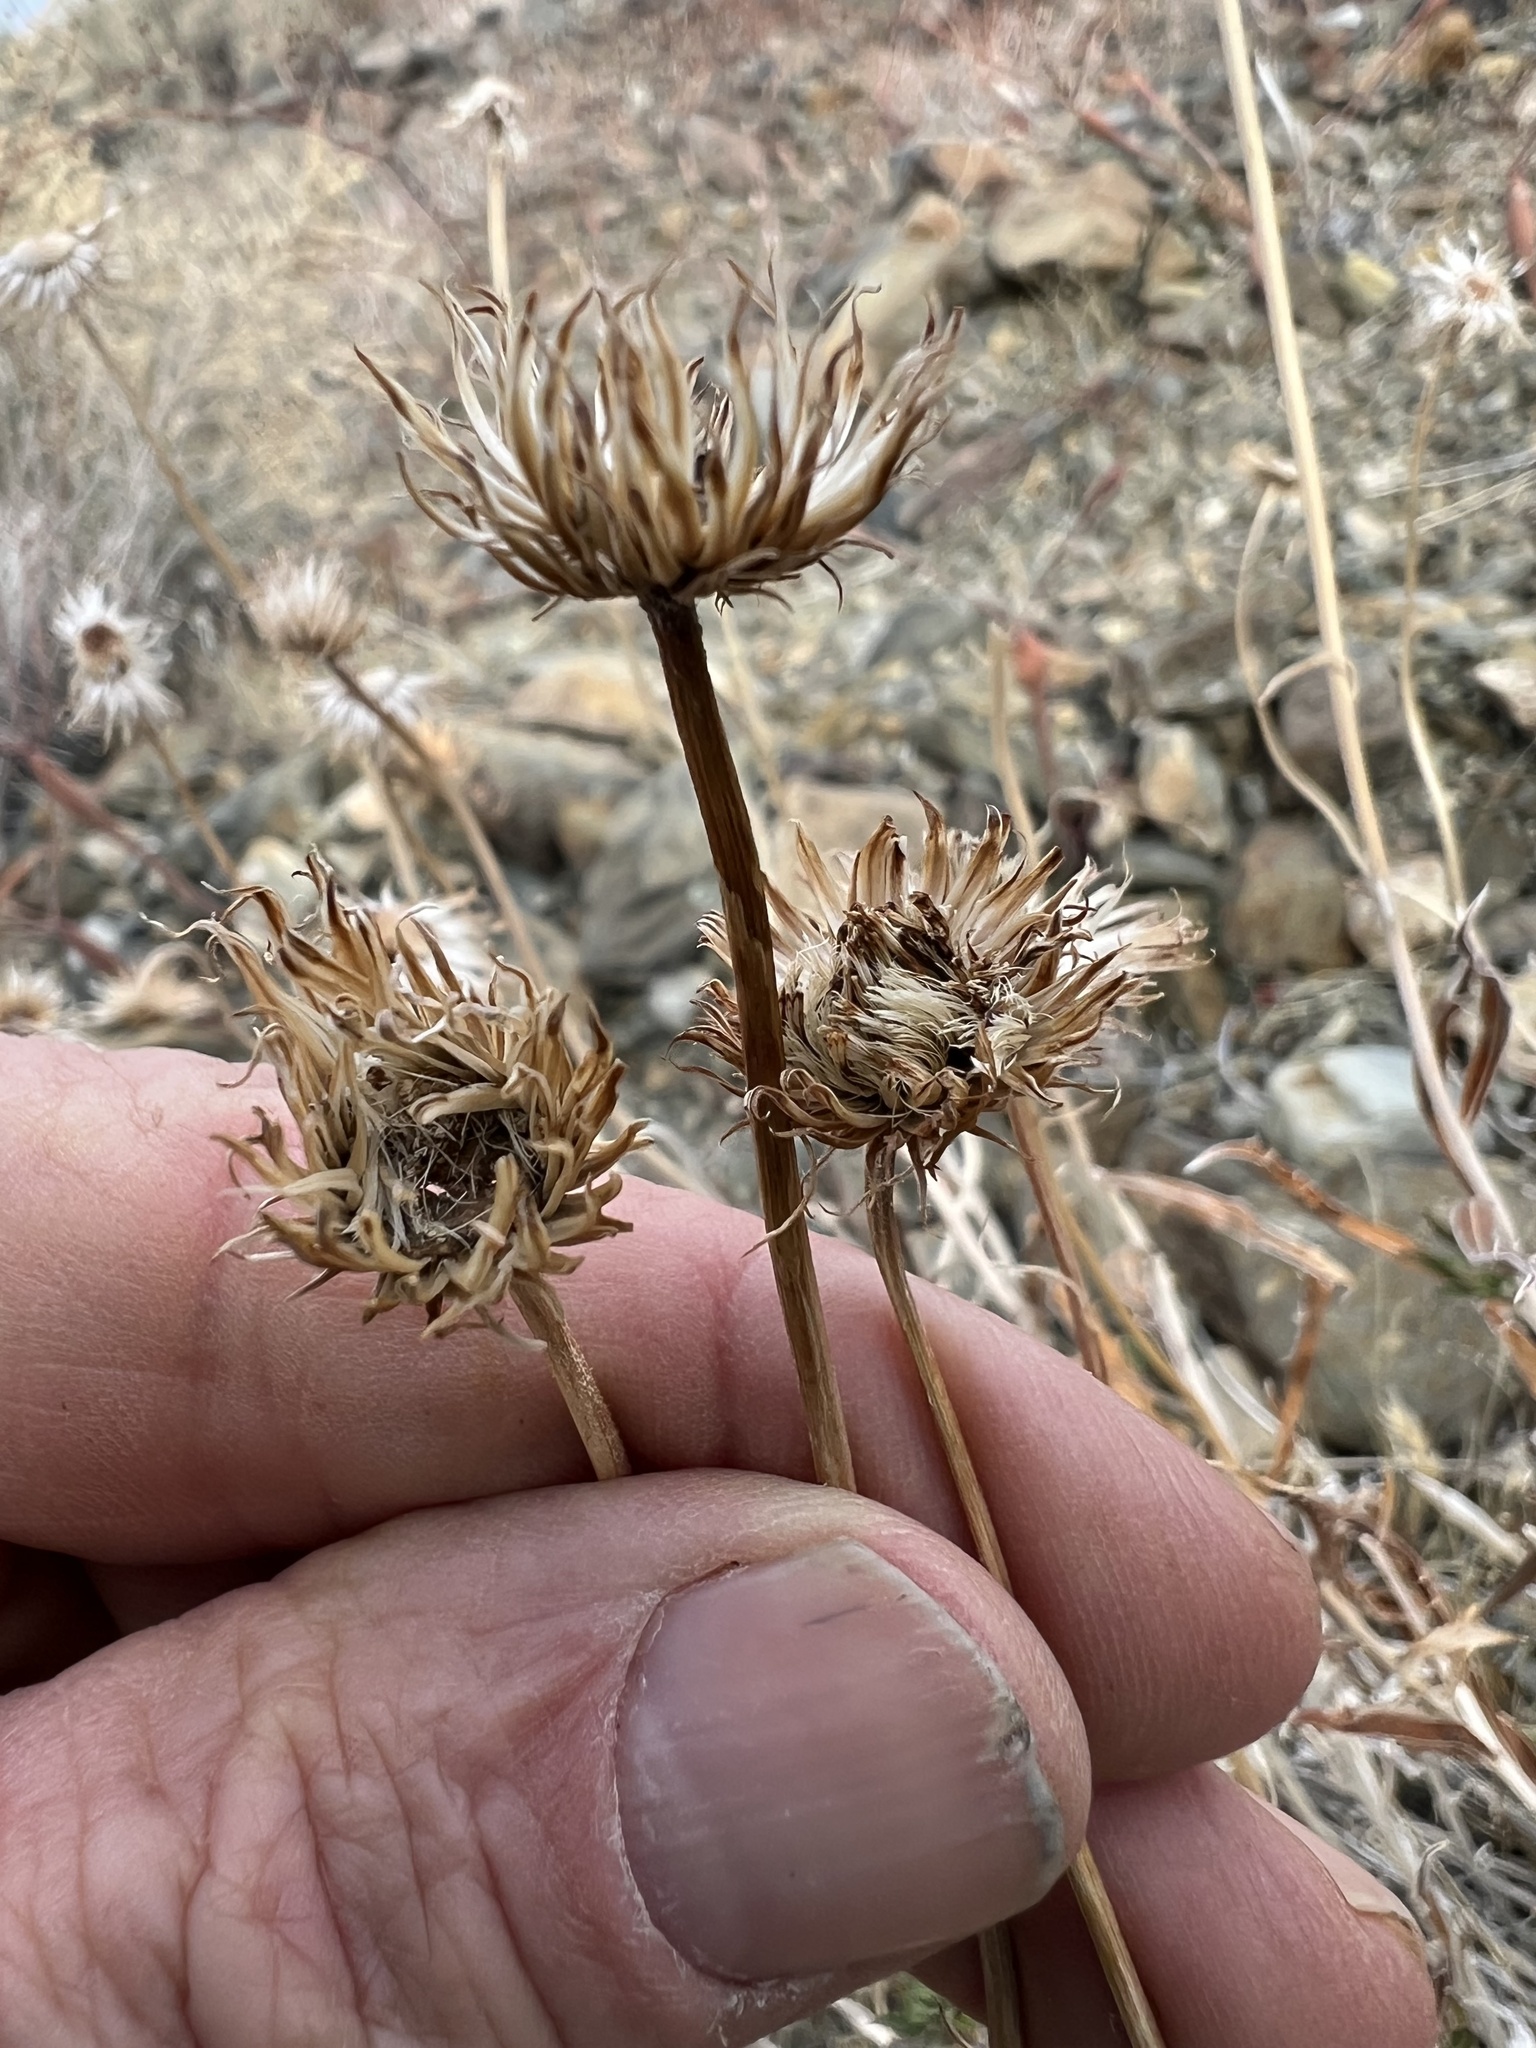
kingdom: Plantae
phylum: Tracheophyta
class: Magnoliopsida
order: Asterales
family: Asteraceae
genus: Xylorhiza
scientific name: Xylorhiza tortifolia
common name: Hurt-leaf woody-aster
